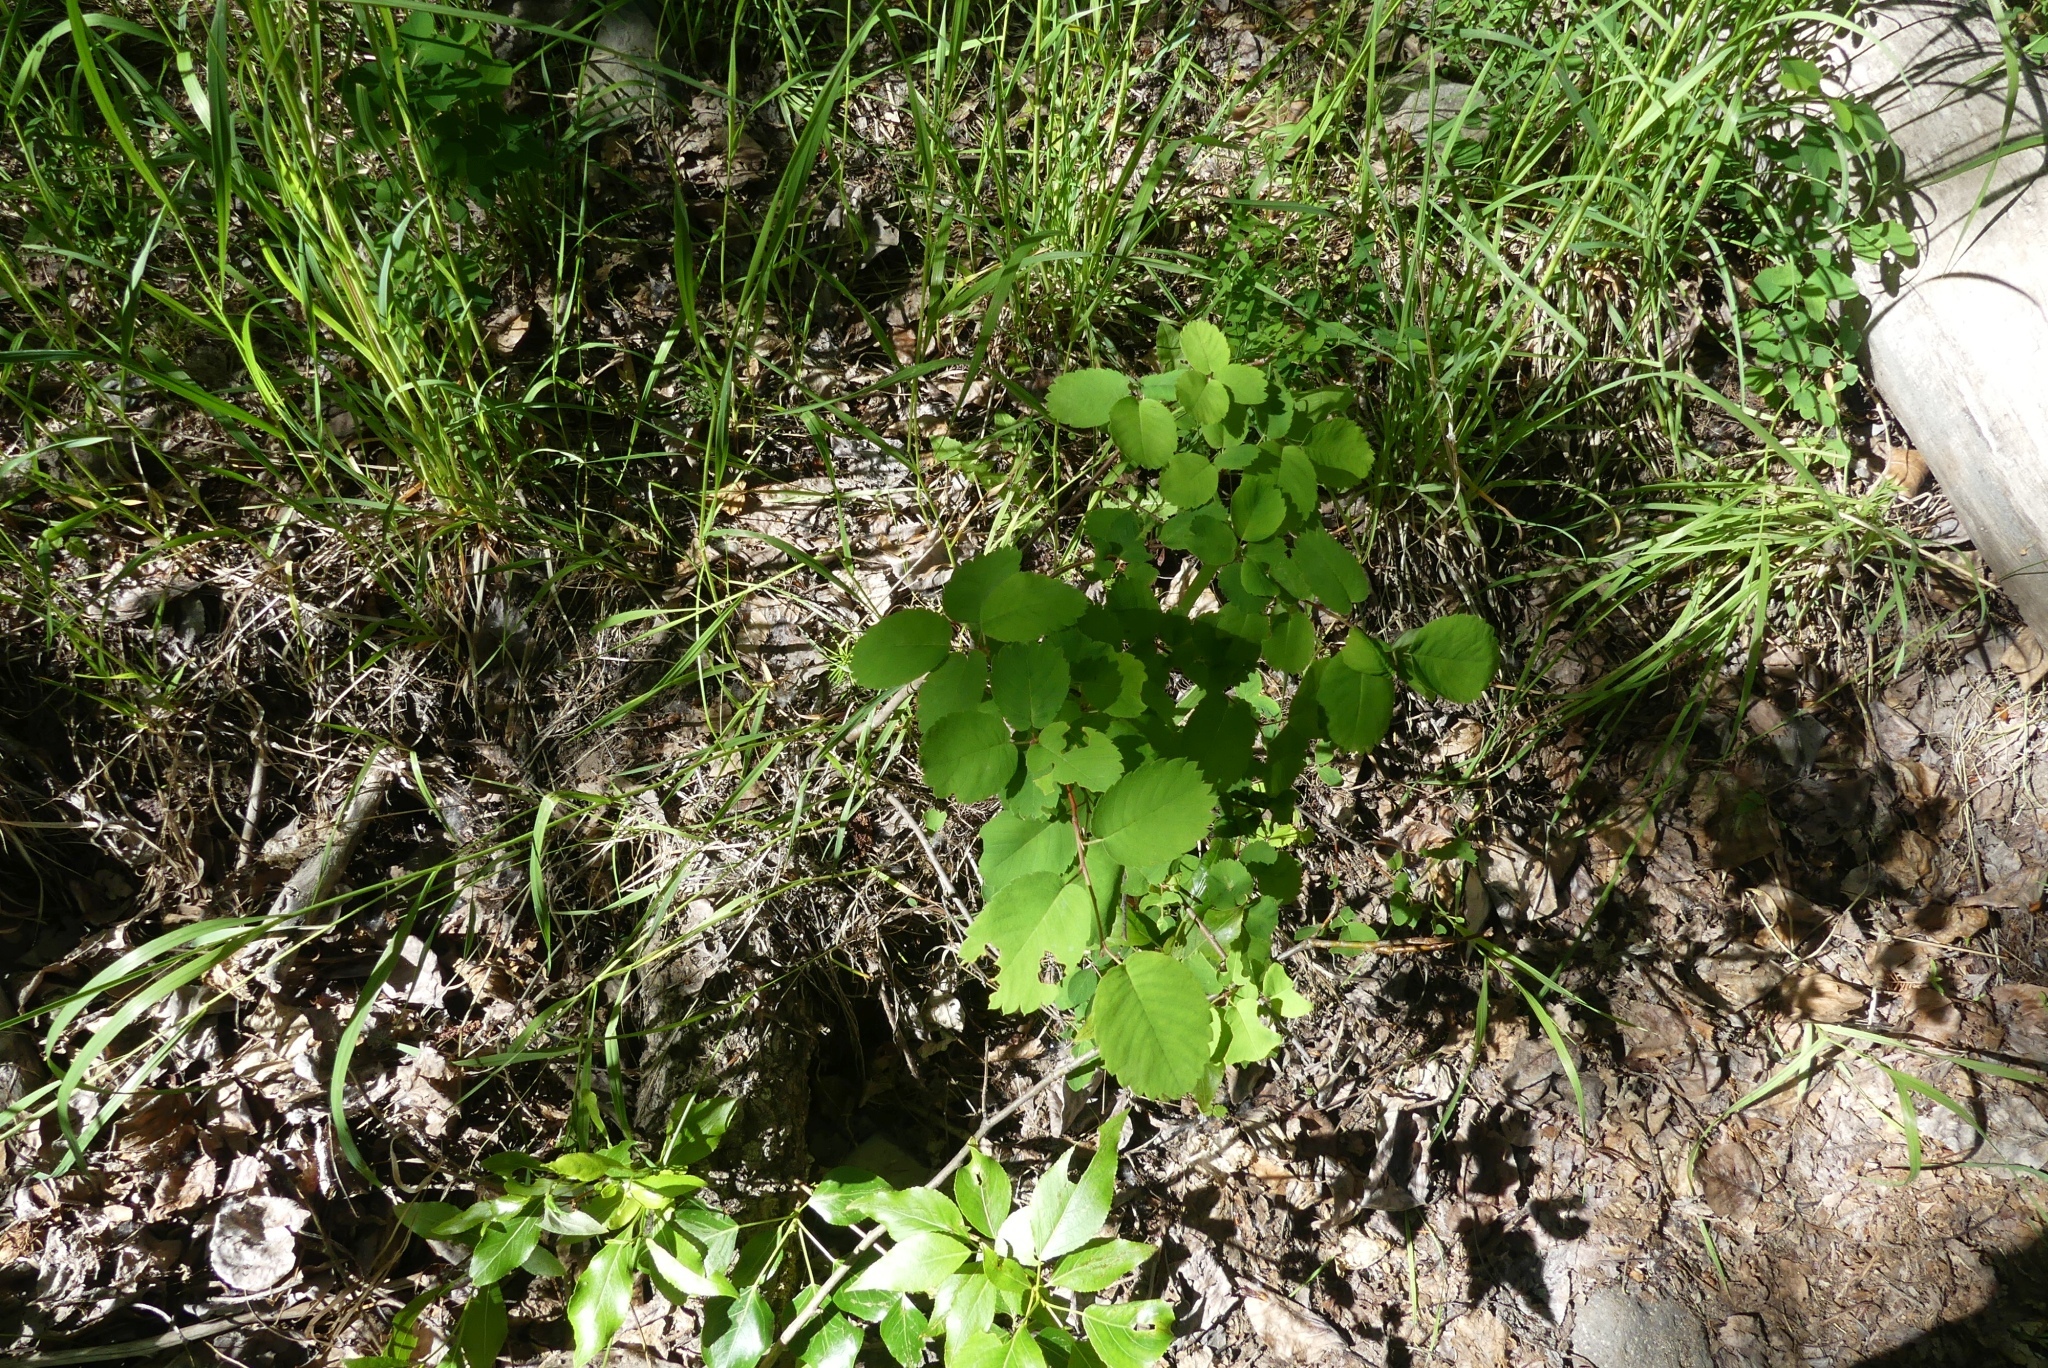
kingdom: Plantae
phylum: Tracheophyta
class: Magnoliopsida
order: Rosales
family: Rosaceae
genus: Amelanchier
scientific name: Amelanchier alnifolia
